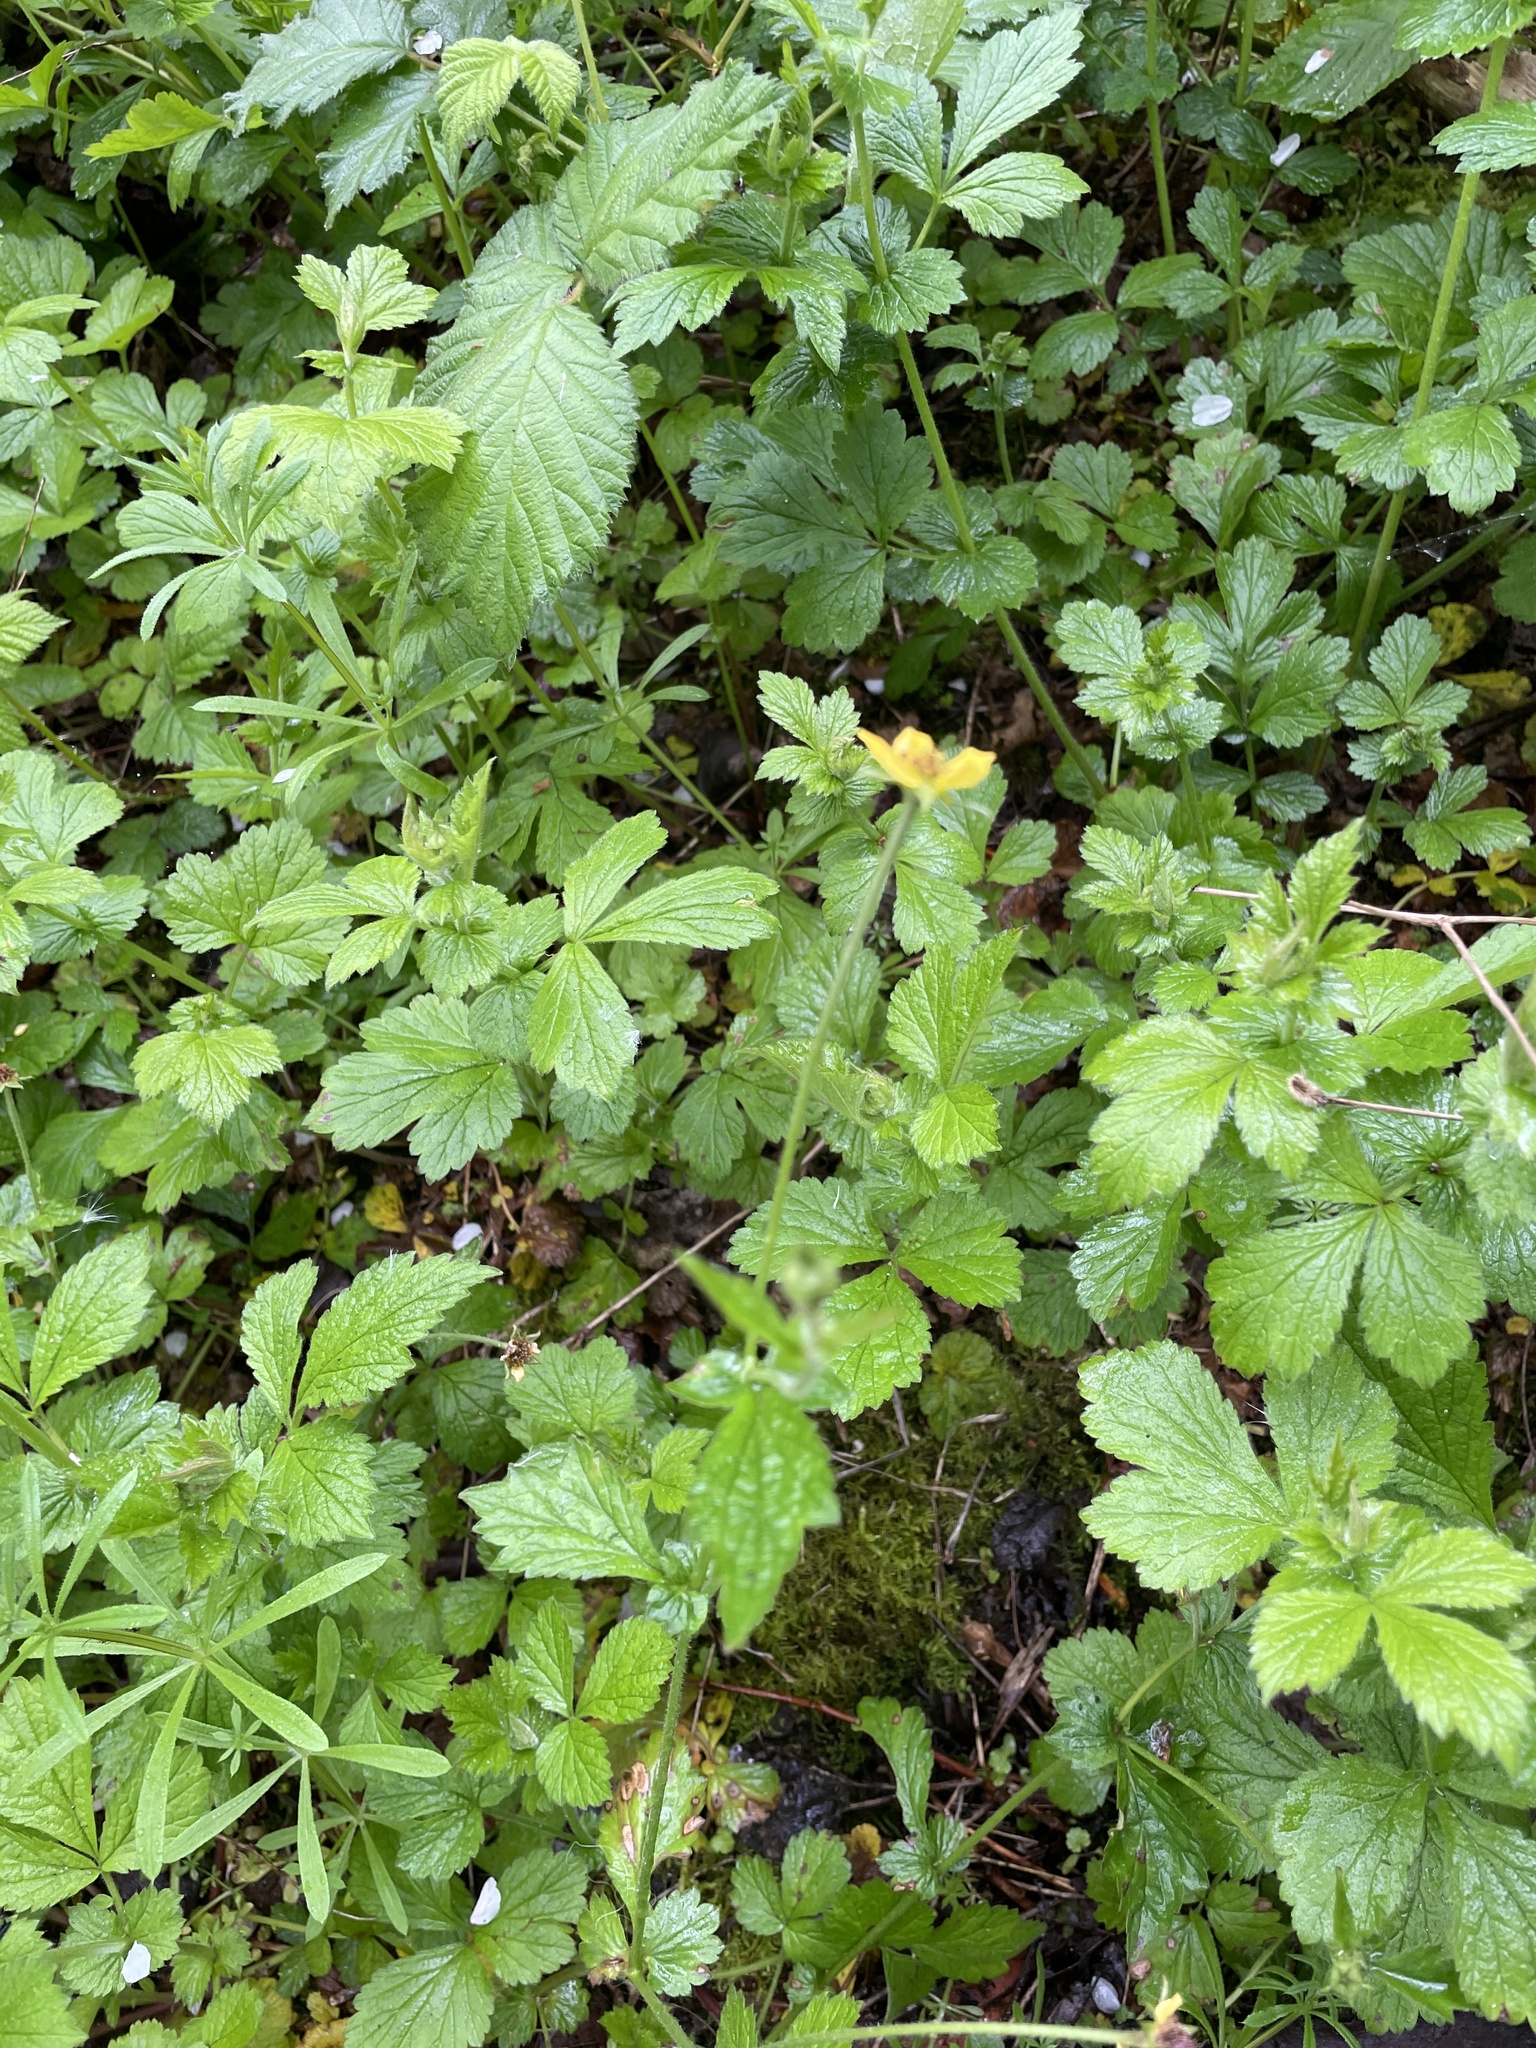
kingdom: Plantae
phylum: Tracheophyta
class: Magnoliopsida
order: Rosales
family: Rosaceae
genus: Geum
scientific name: Geum urbanum
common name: Wood avens
